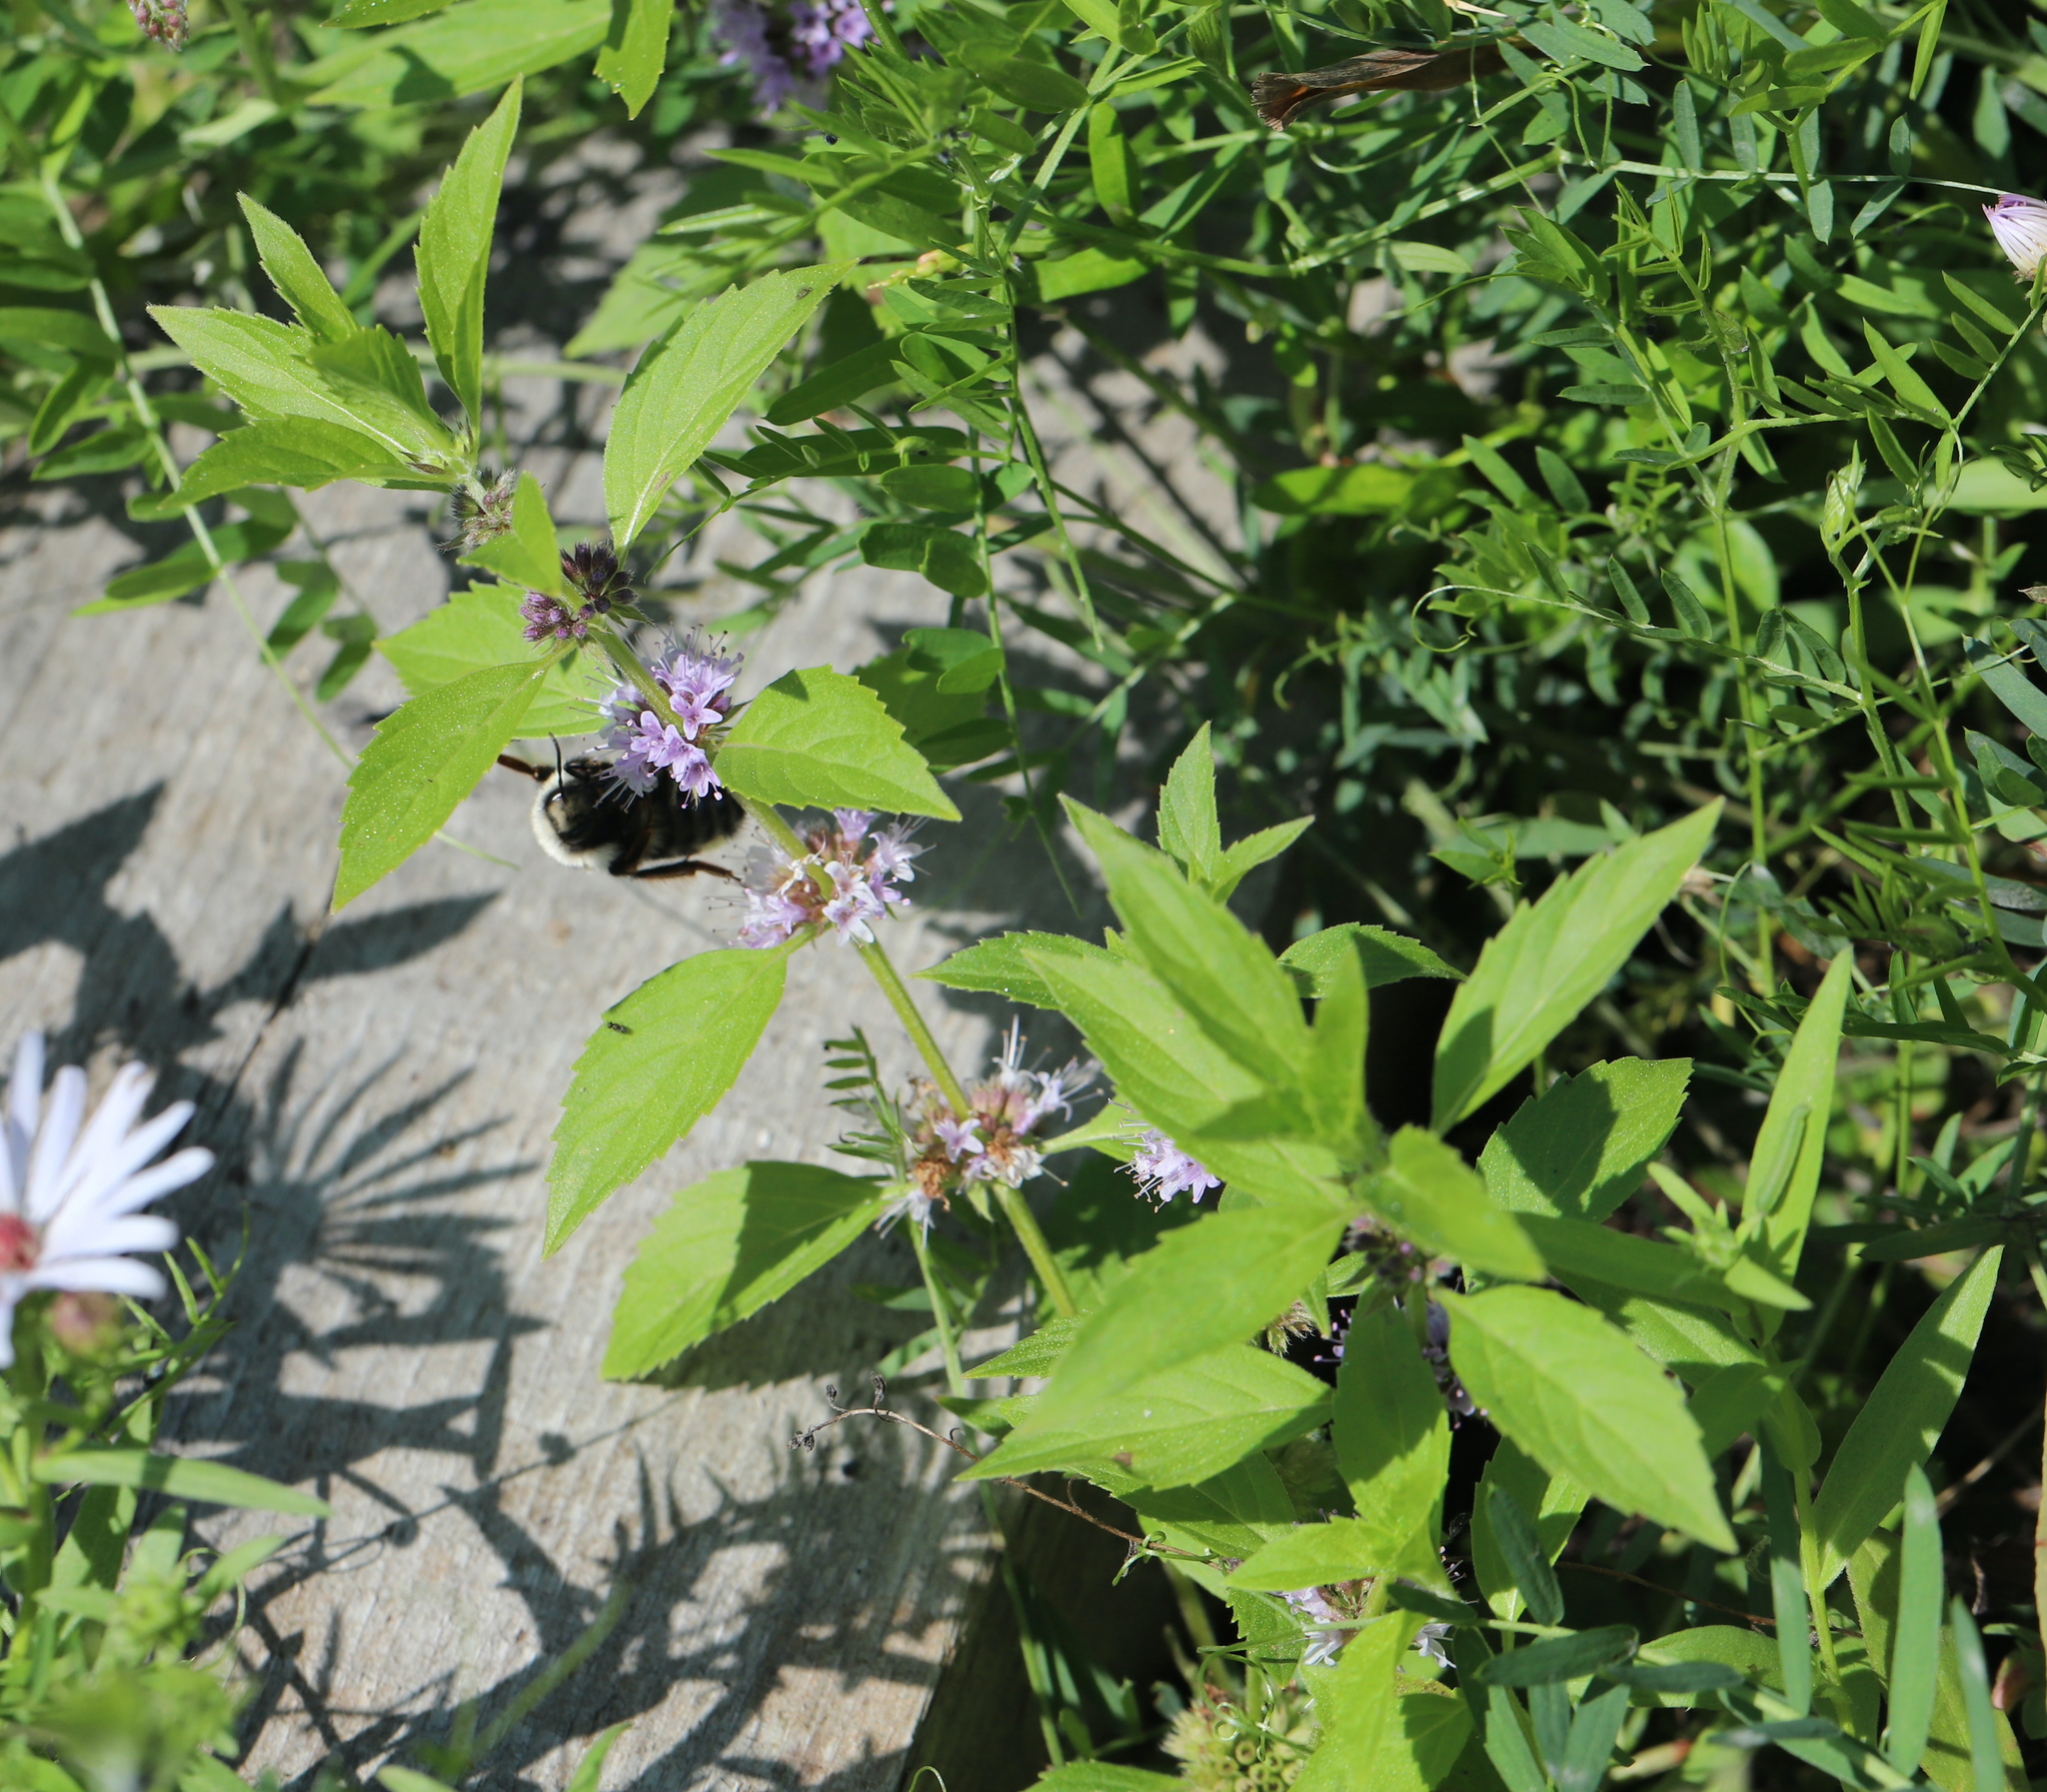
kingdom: Plantae
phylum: Tracheophyta
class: Magnoliopsida
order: Lamiales
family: Lamiaceae
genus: Mentha
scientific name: Mentha canadensis
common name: American corn mint
